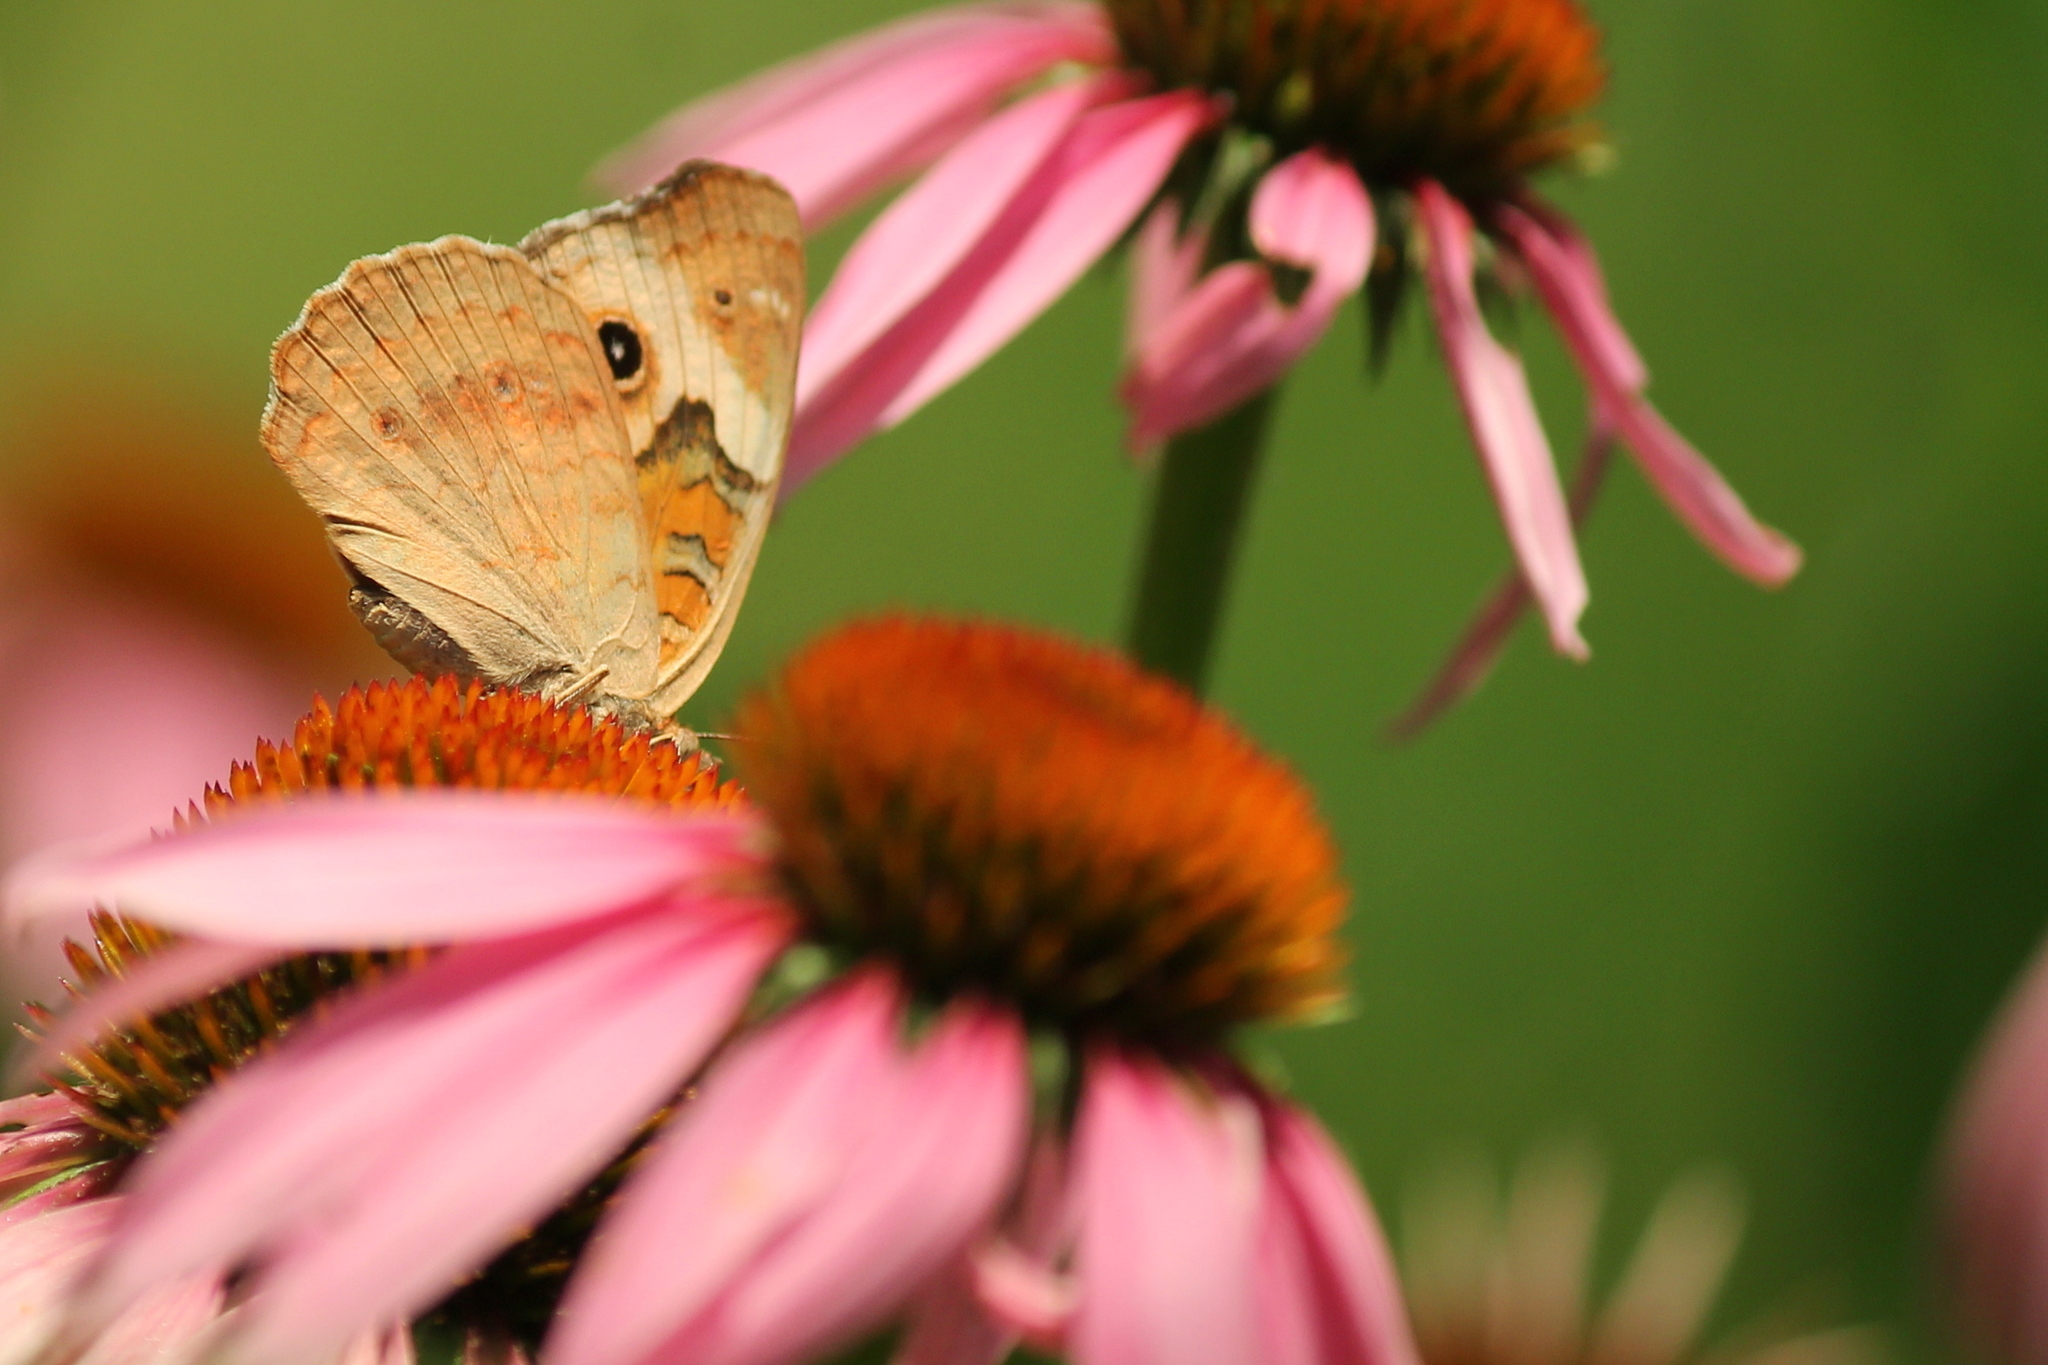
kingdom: Animalia
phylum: Arthropoda
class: Insecta
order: Lepidoptera
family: Nymphalidae
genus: Junonia
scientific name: Junonia coenia
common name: Common buckeye
